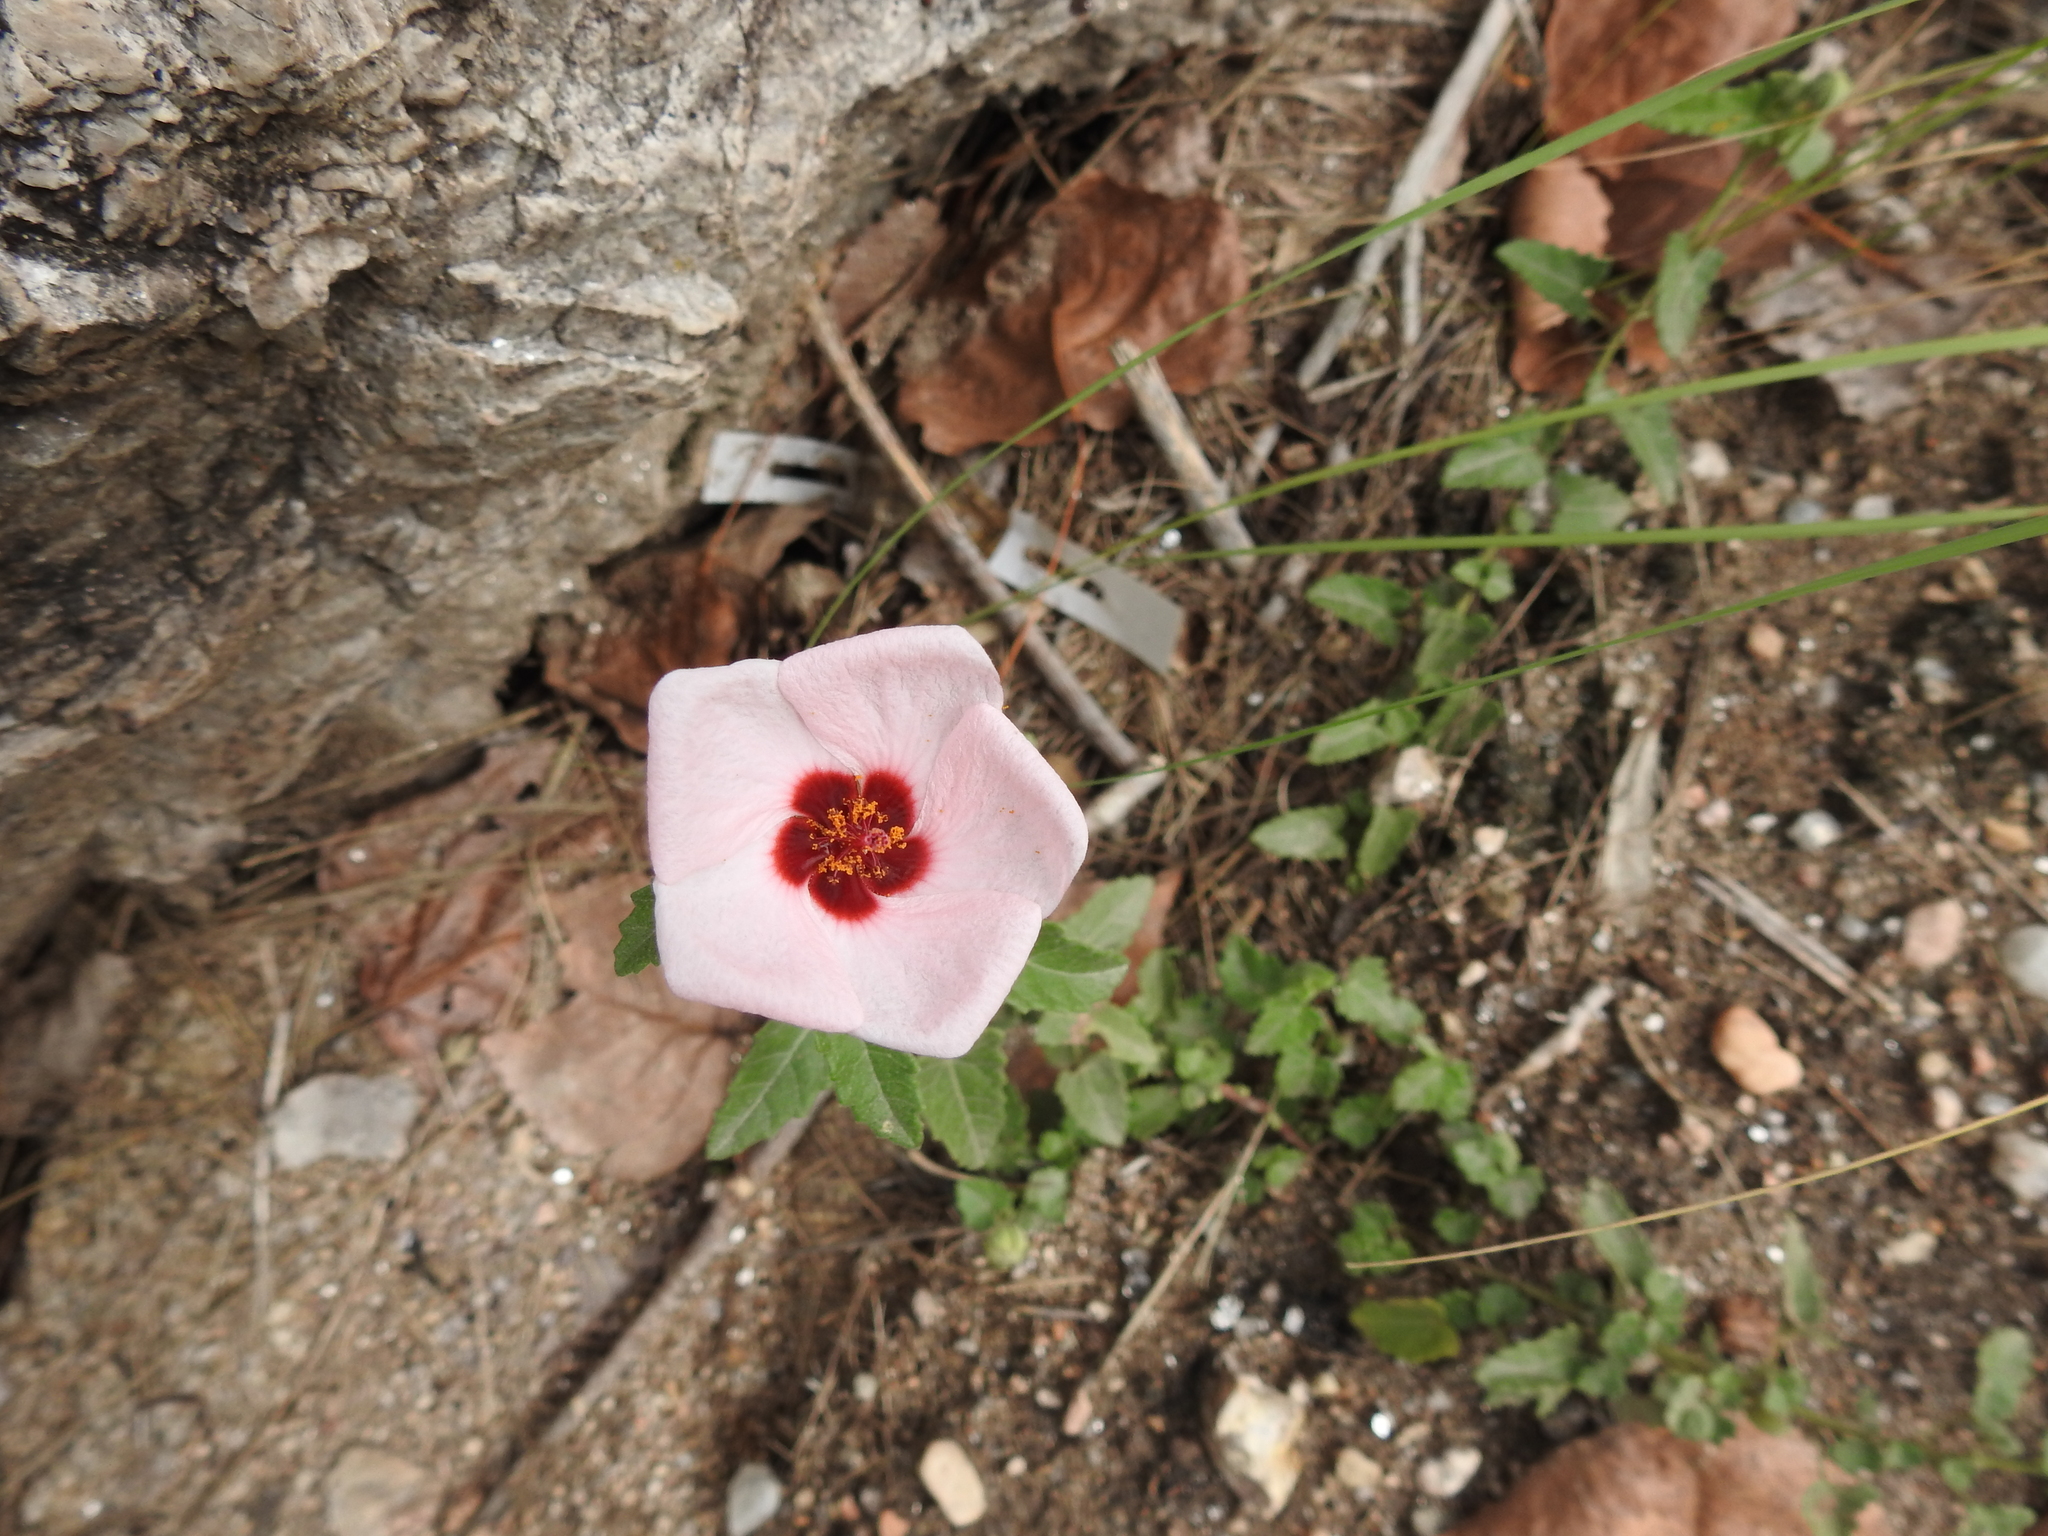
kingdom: Plantae
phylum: Tracheophyta
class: Magnoliopsida
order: Malvales
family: Malvaceae
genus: Pavonia
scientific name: Pavonia aurigloba
